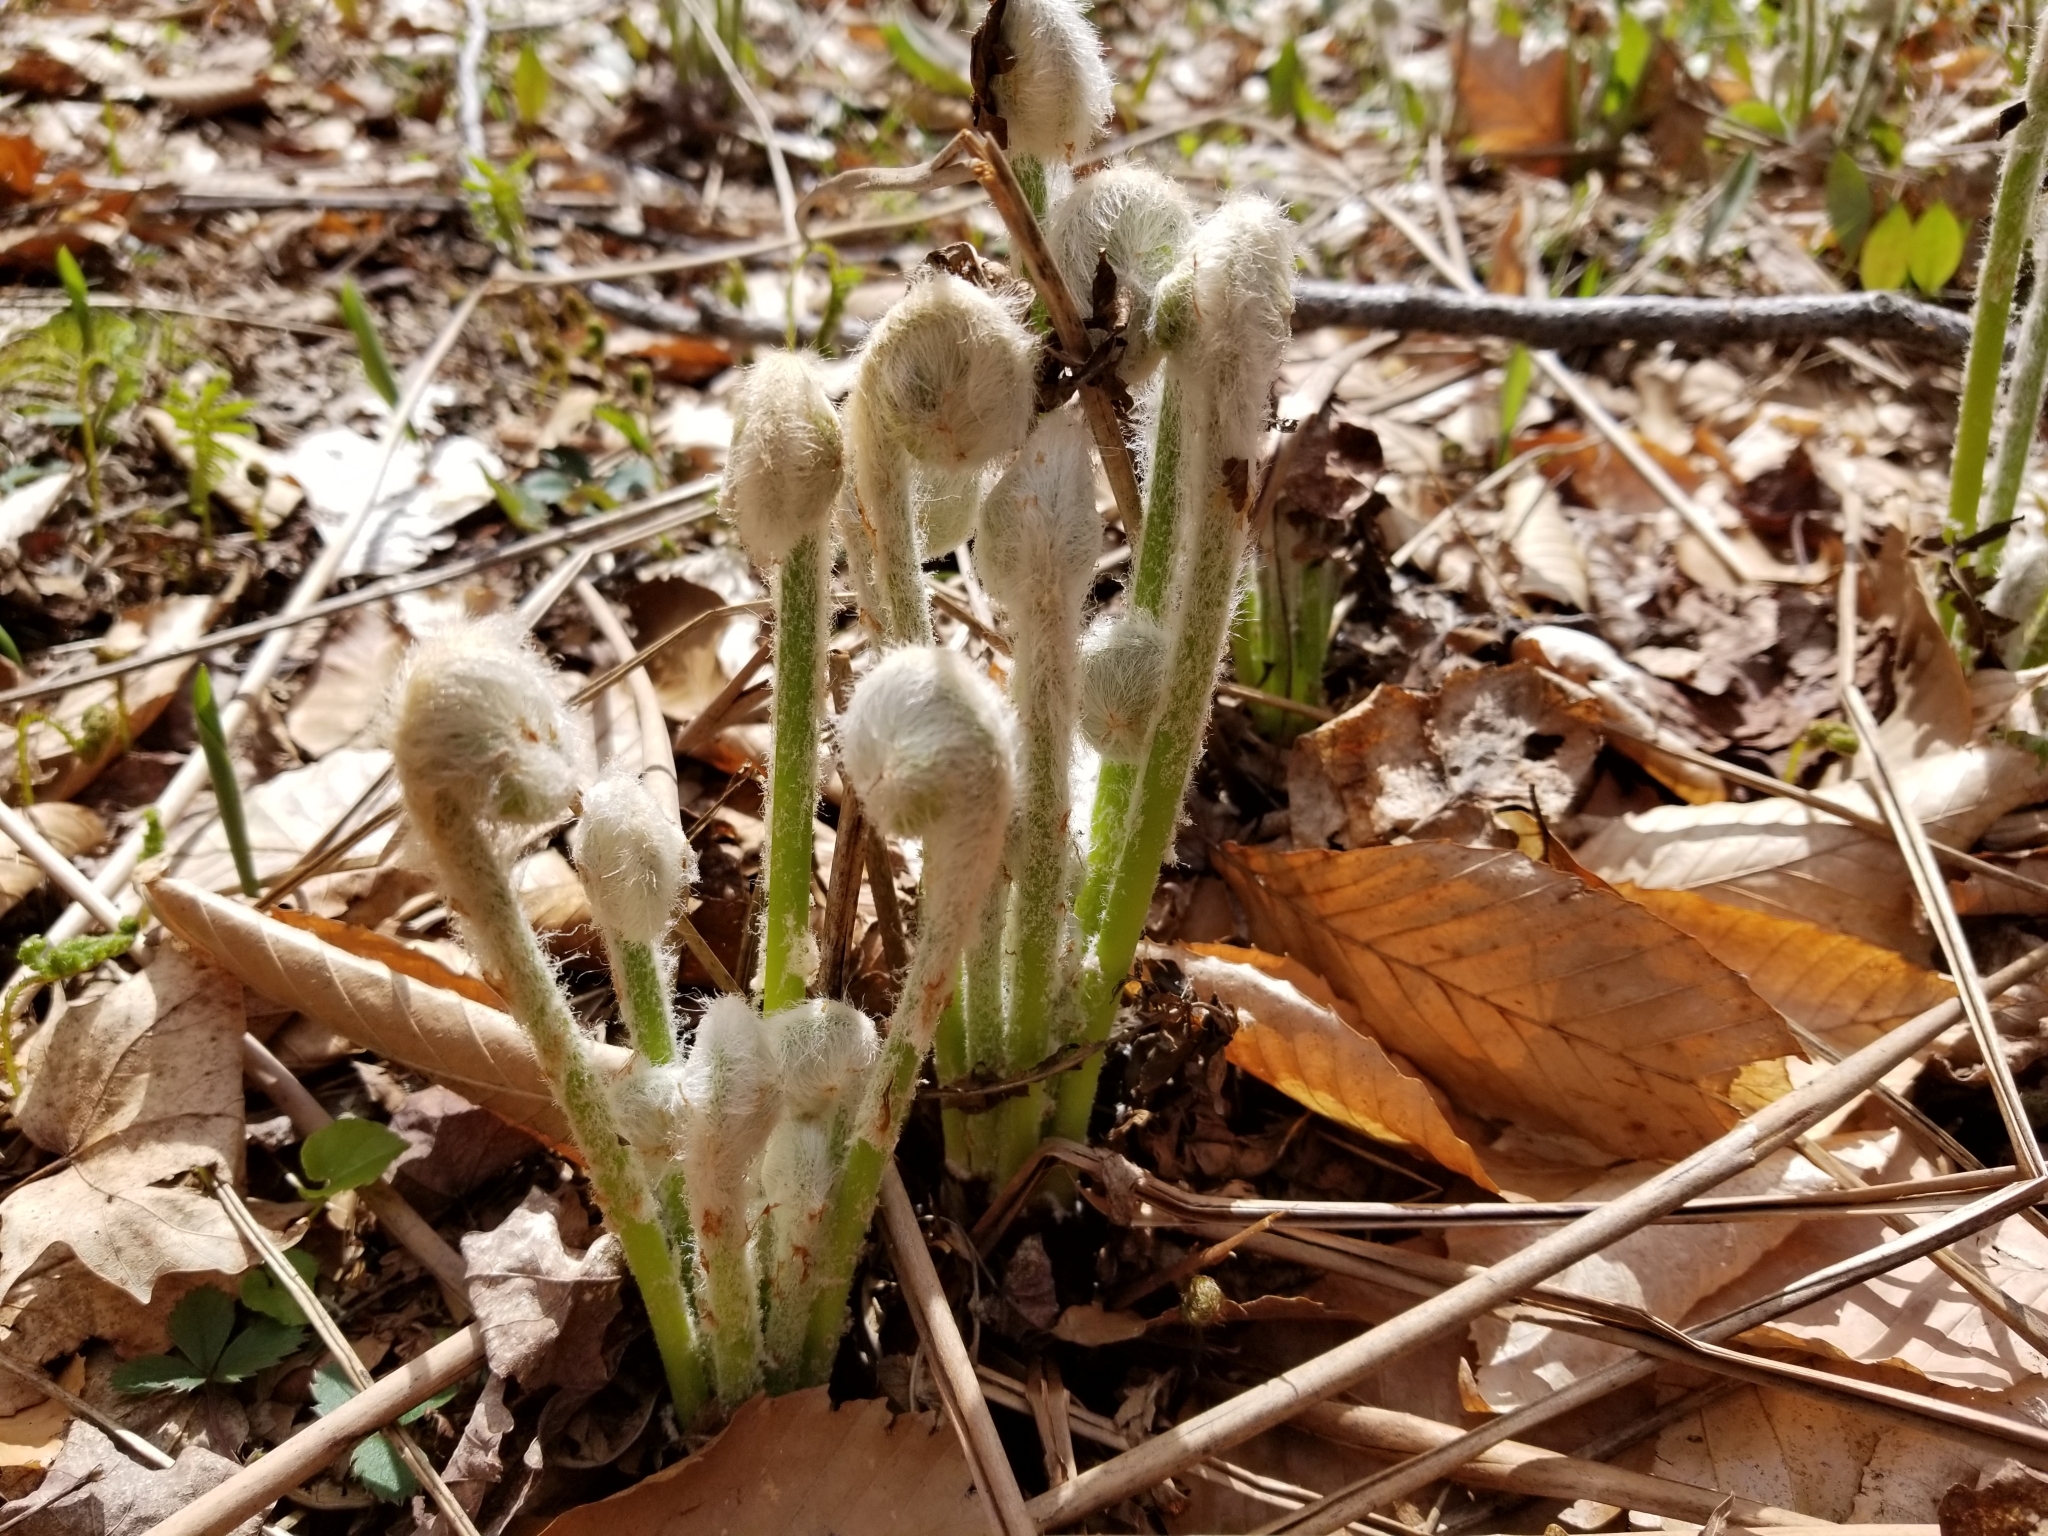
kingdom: Plantae
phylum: Tracheophyta
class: Polypodiopsida
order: Osmundales
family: Osmundaceae
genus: Claytosmunda
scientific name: Claytosmunda claytoniana
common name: Clayton's fern
